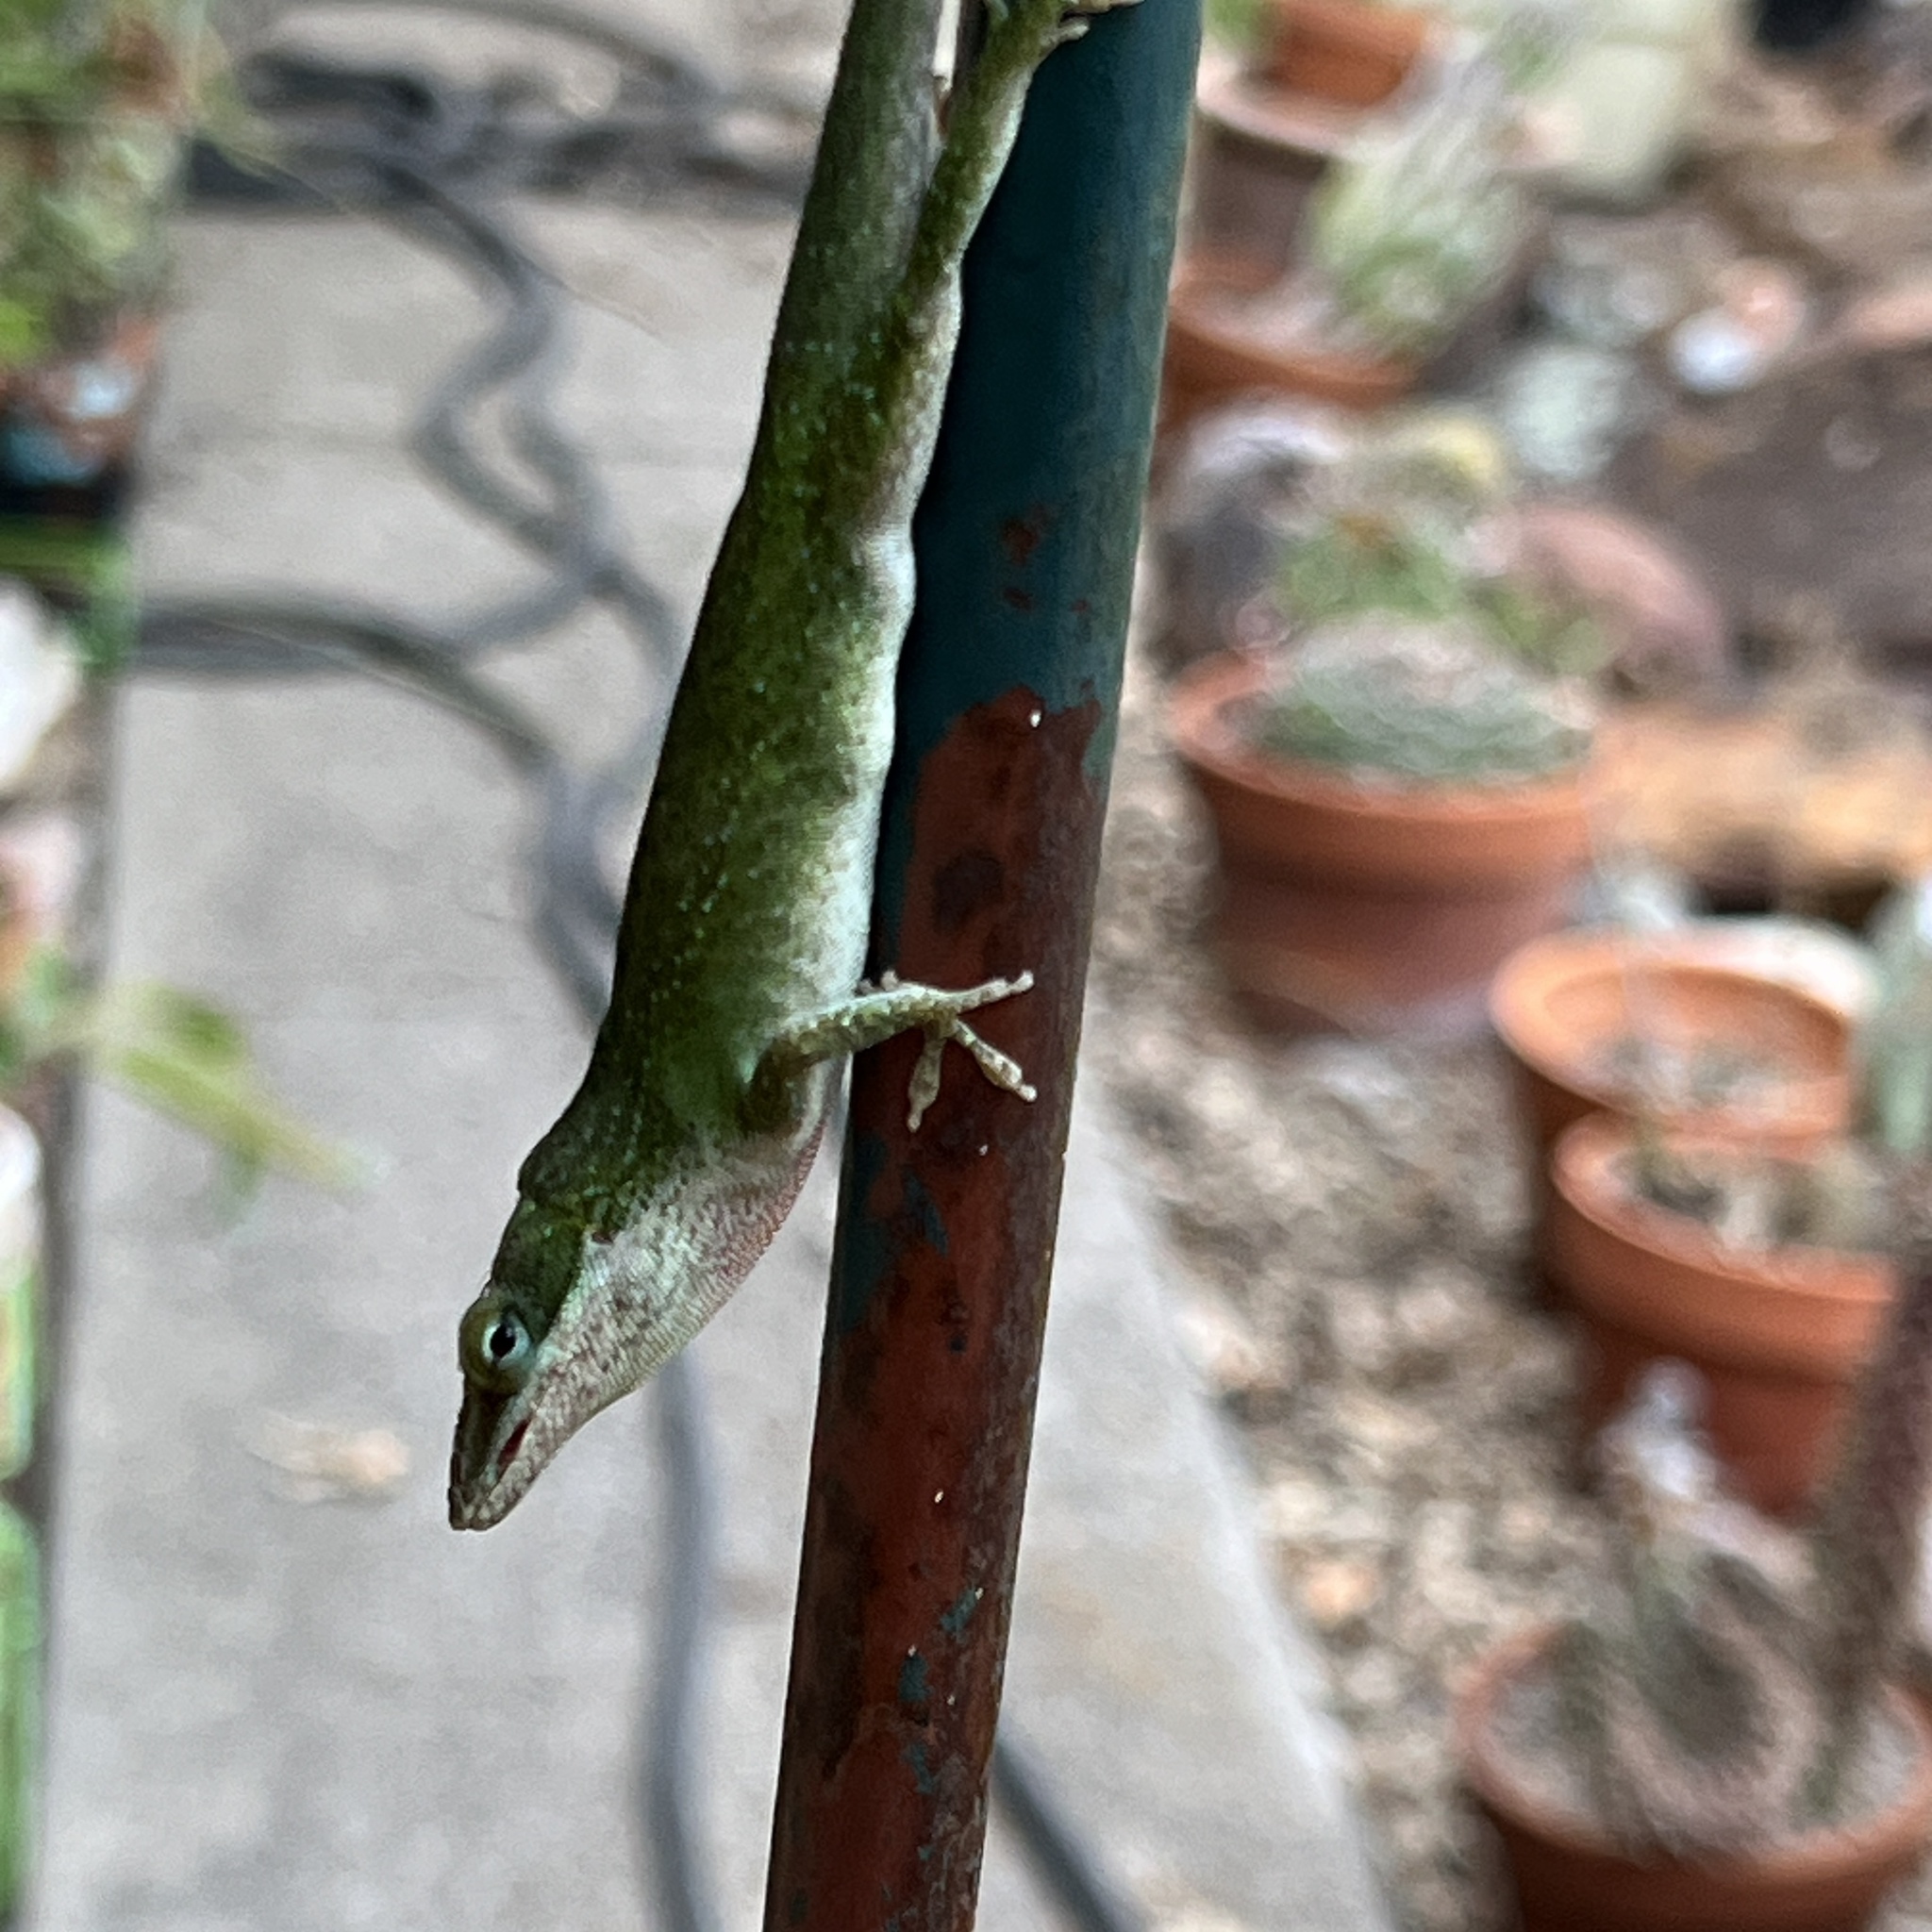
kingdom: Animalia
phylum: Chordata
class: Squamata
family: Dactyloidae
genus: Anolis
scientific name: Anolis carolinensis
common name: Green anole
